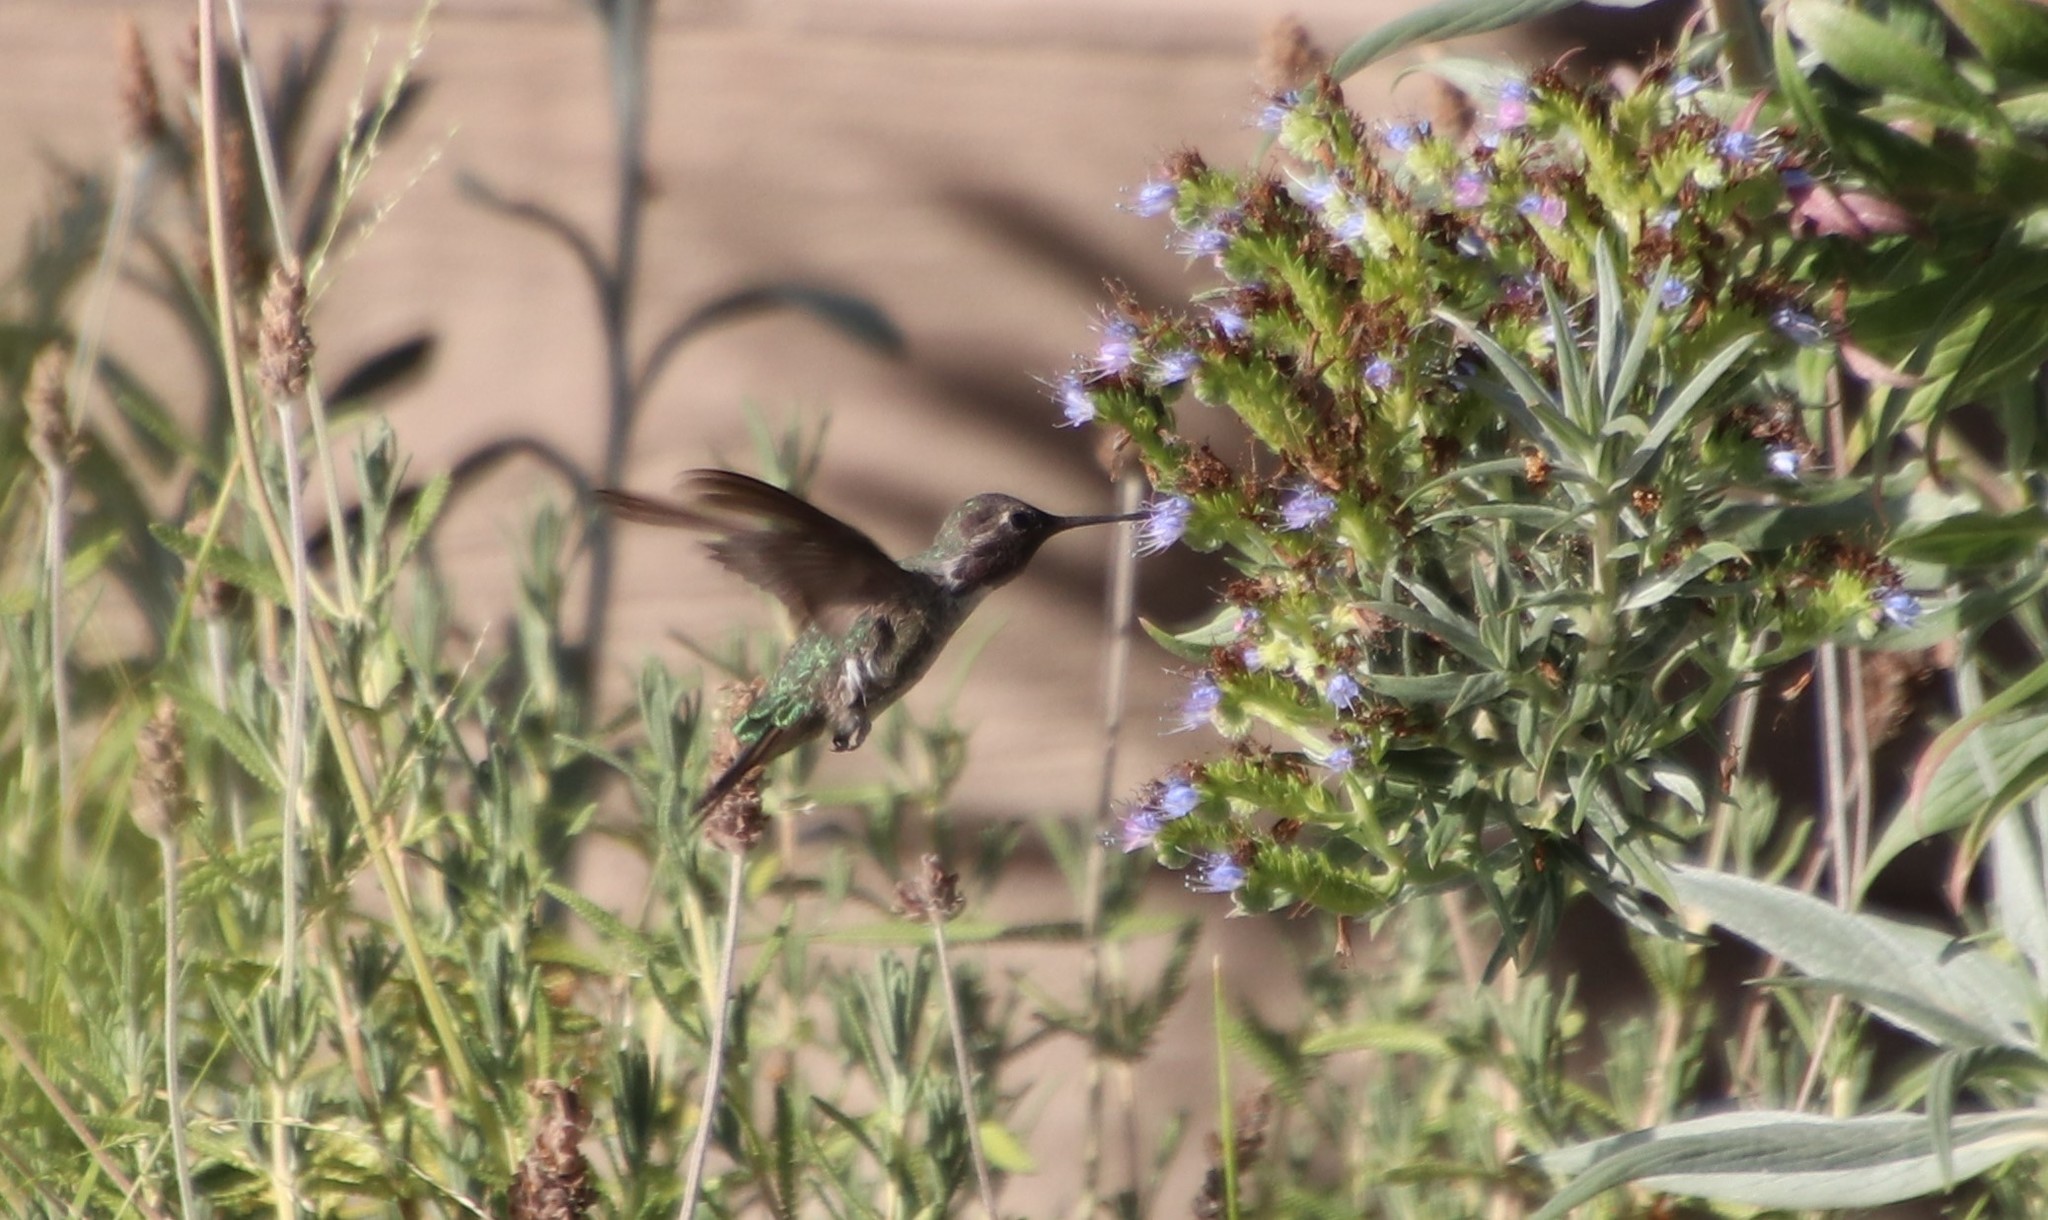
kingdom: Animalia
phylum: Chordata
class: Aves
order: Apodiformes
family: Trochilidae
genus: Calypte
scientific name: Calypte anna
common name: Anna's hummingbird
